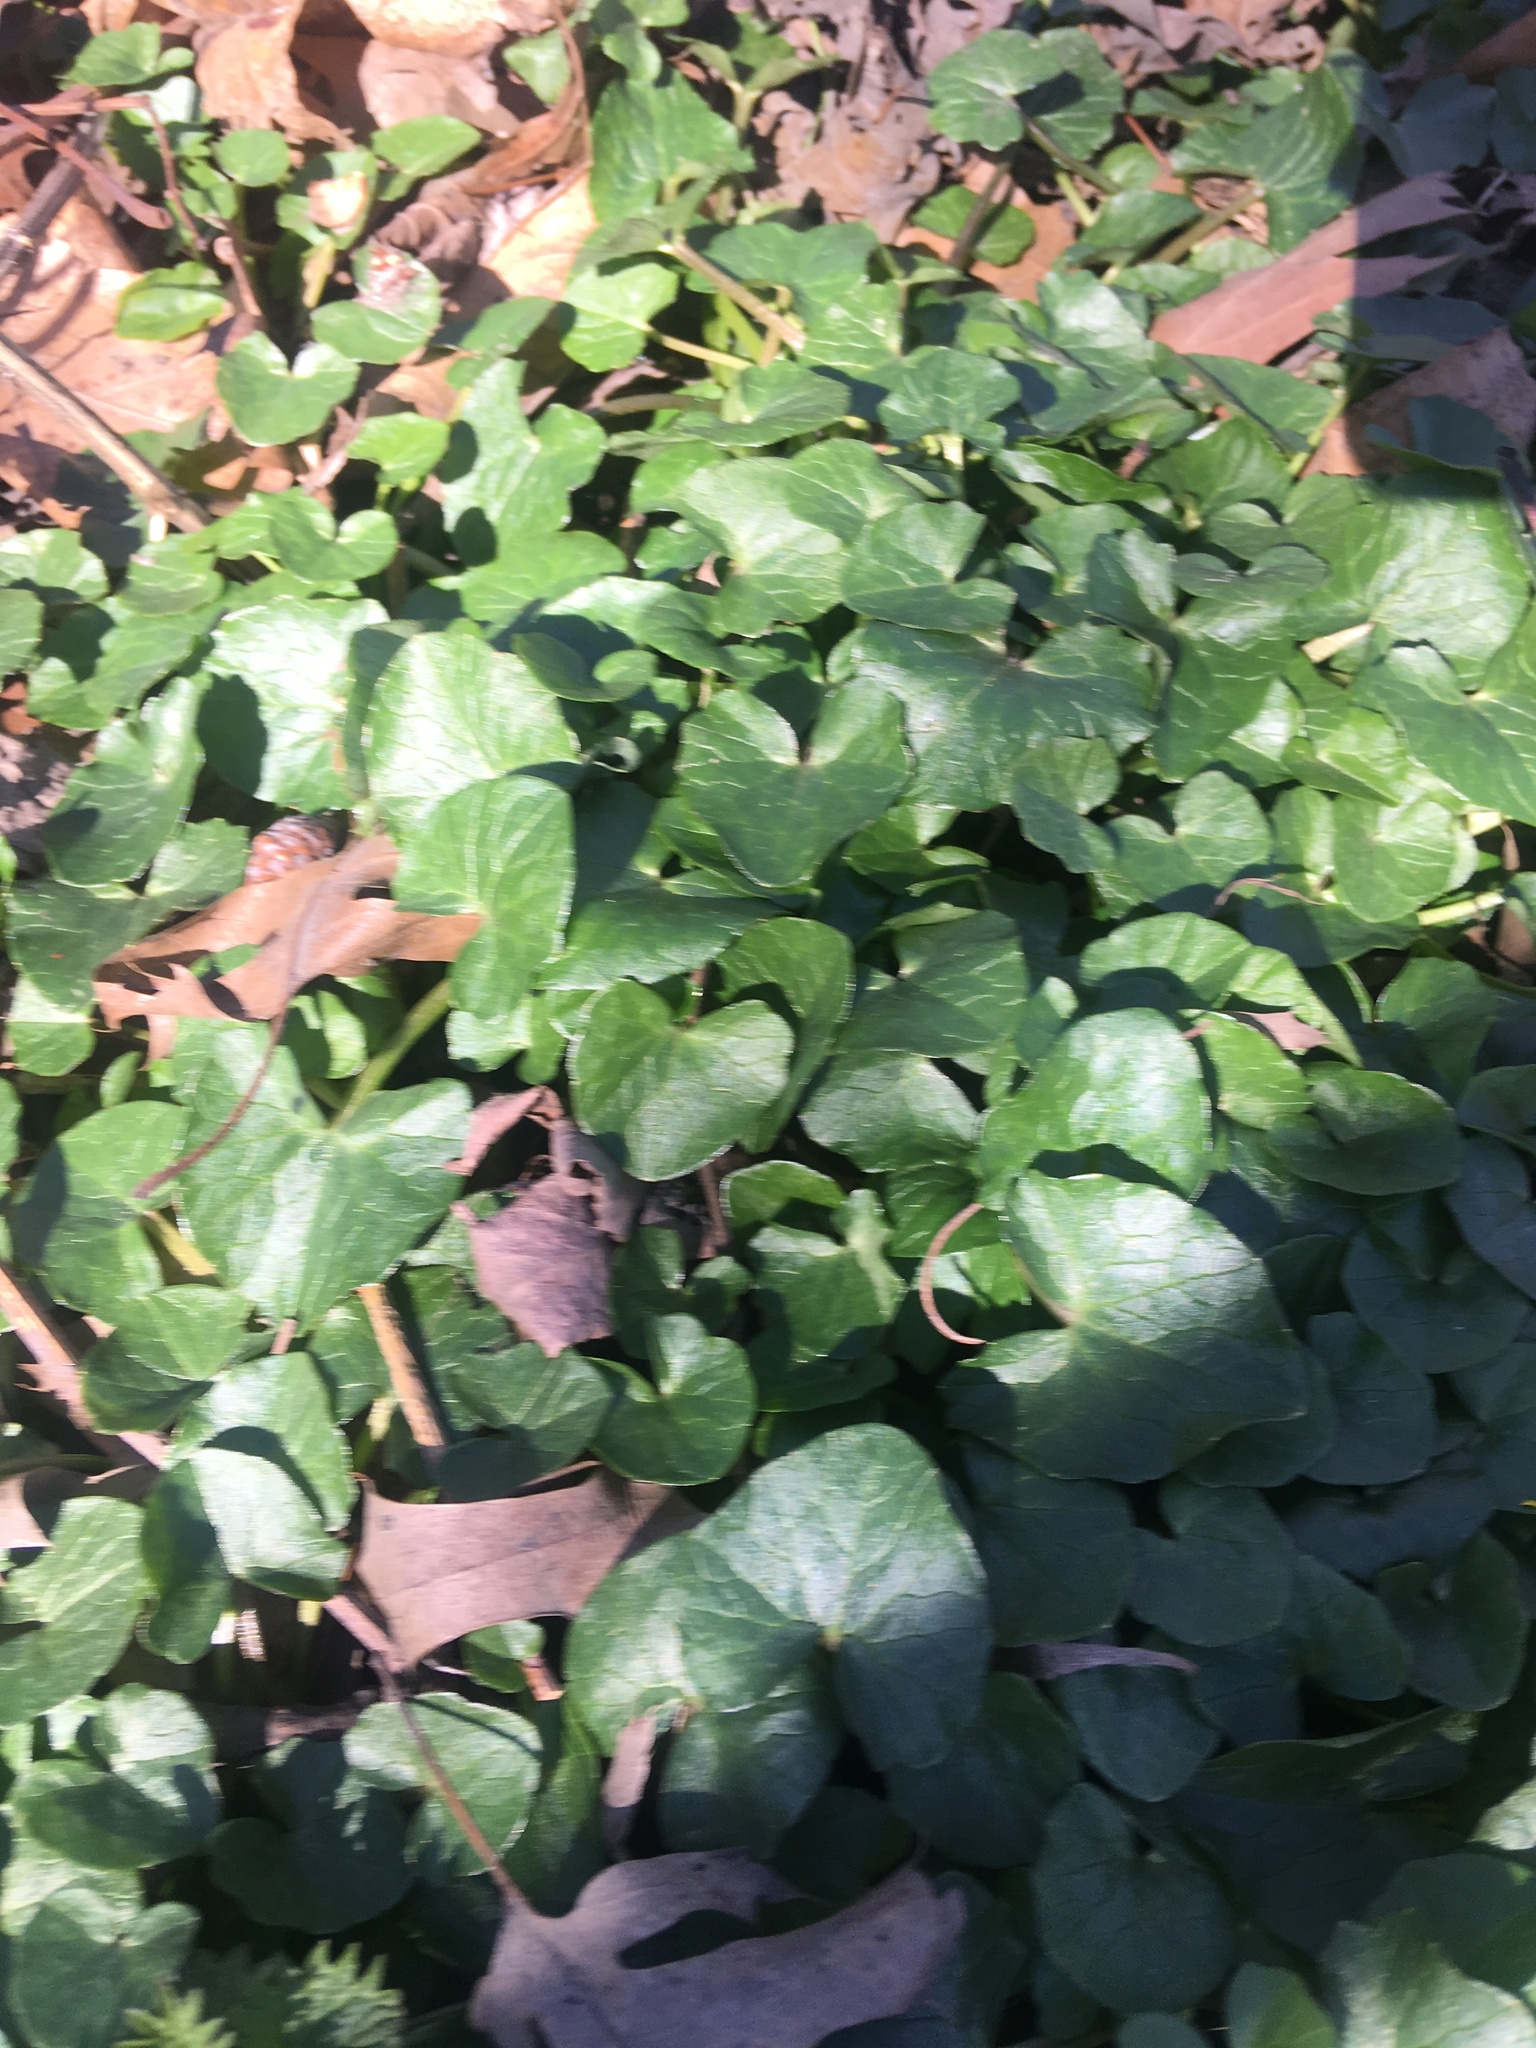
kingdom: Plantae
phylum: Tracheophyta
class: Magnoliopsida
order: Ranunculales
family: Ranunculaceae
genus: Ficaria
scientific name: Ficaria verna
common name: Lesser celandine
